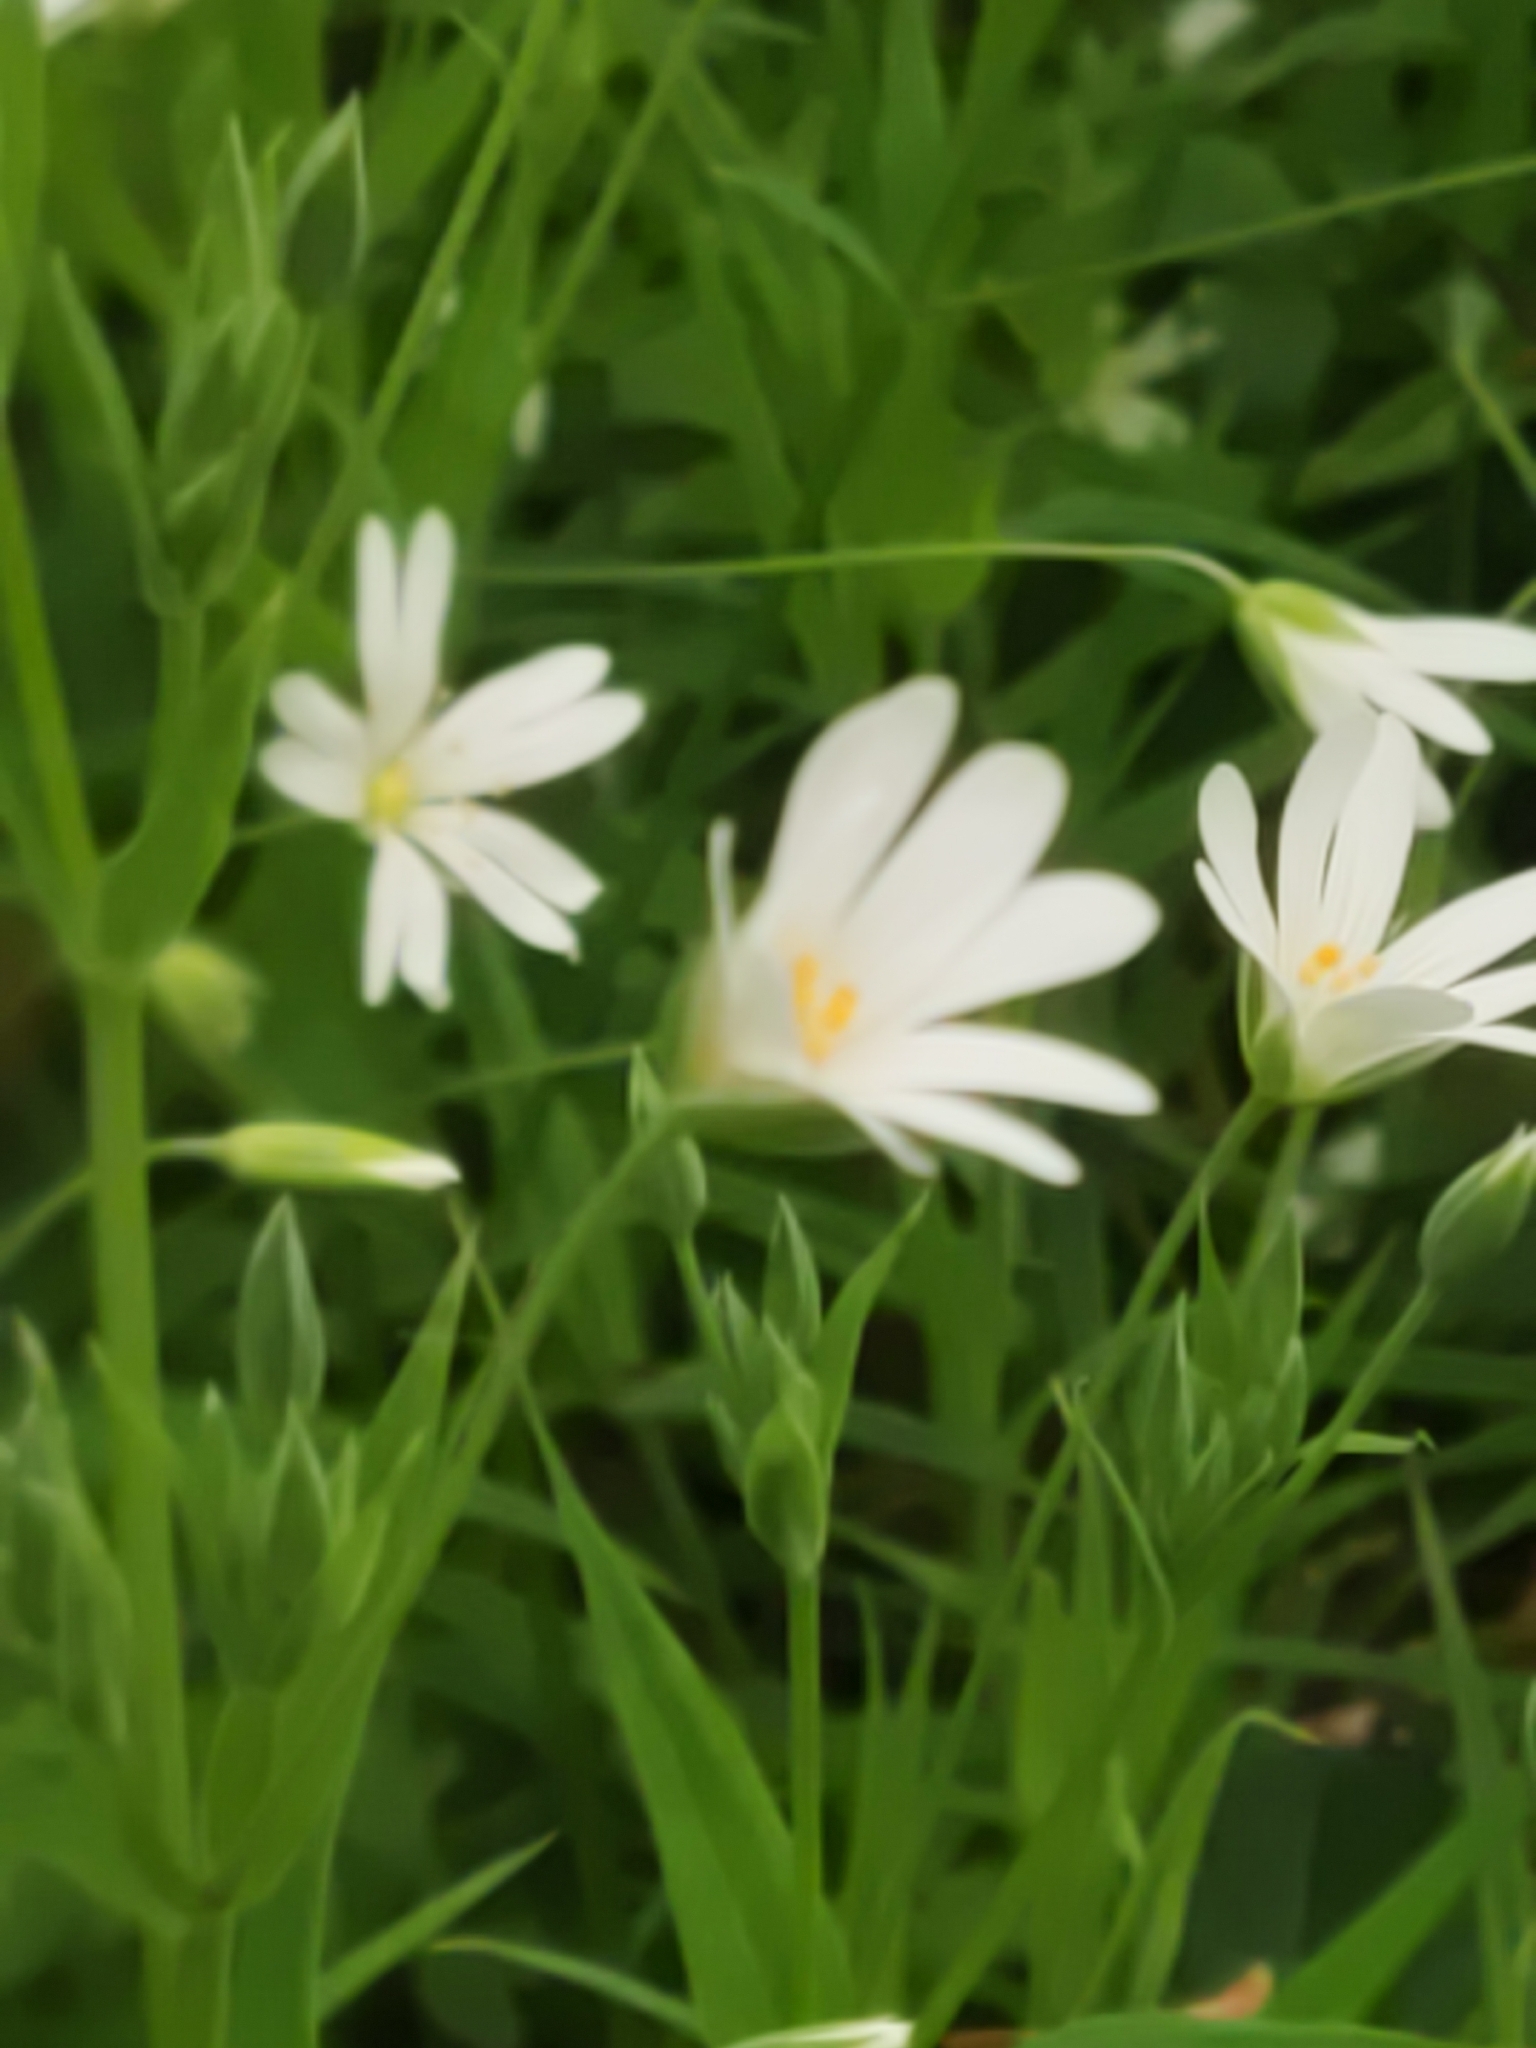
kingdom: Plantae
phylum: Tracheophyta
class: Magnoliopsida
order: Caryophyllales
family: Caryophyllaceae
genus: Rabelera
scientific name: Rabelera holostea
